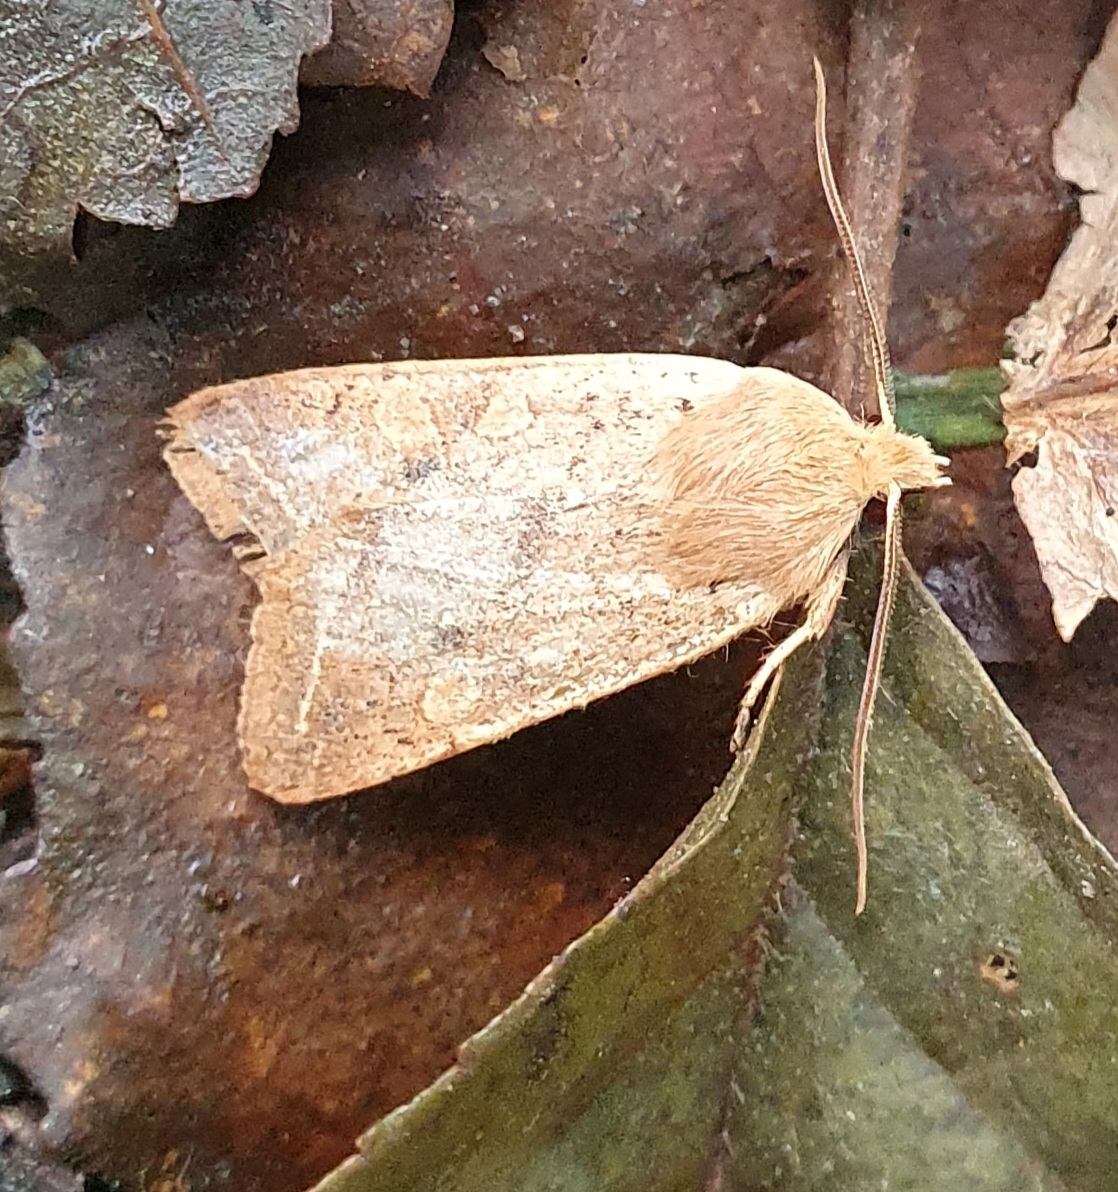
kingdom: Animalia
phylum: Arthropoda
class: Insecta
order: Lepidoptera
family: Noctuidae
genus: Agrochola
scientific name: Agrochola macilenta
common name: Yellow-line quaker
